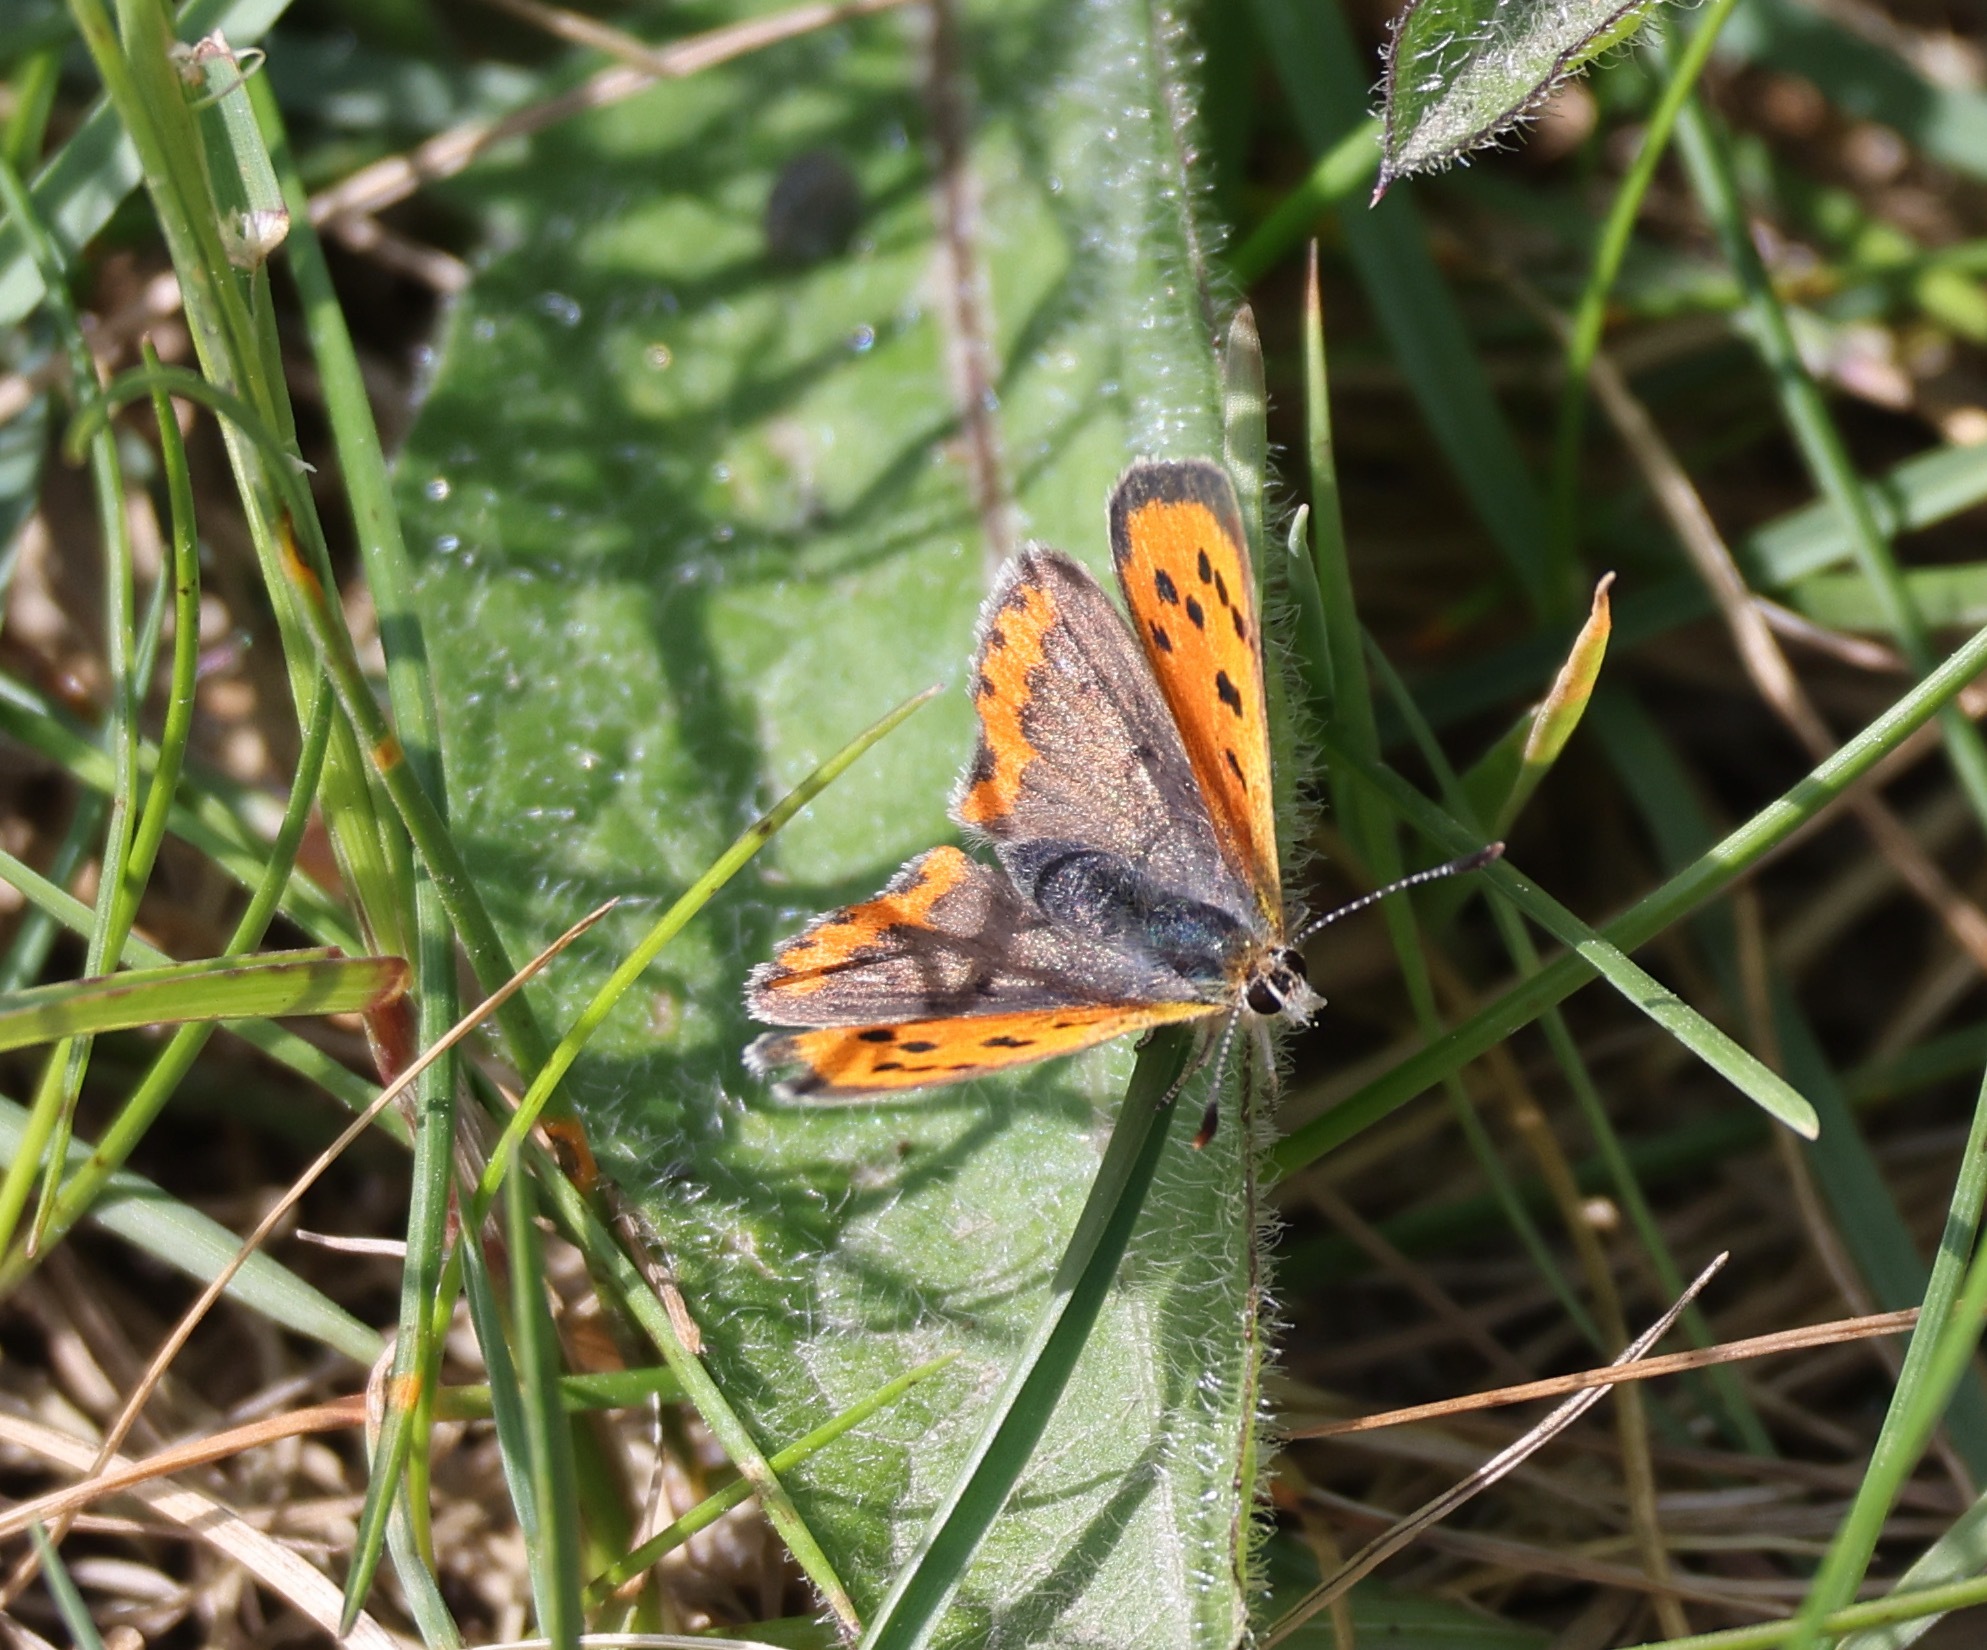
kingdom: Animalia
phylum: Arthropoda
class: Insecta
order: Lepidoptera
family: Lycaenidae
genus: Lycaena
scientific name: Lycaena phlaeas
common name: Small copper
